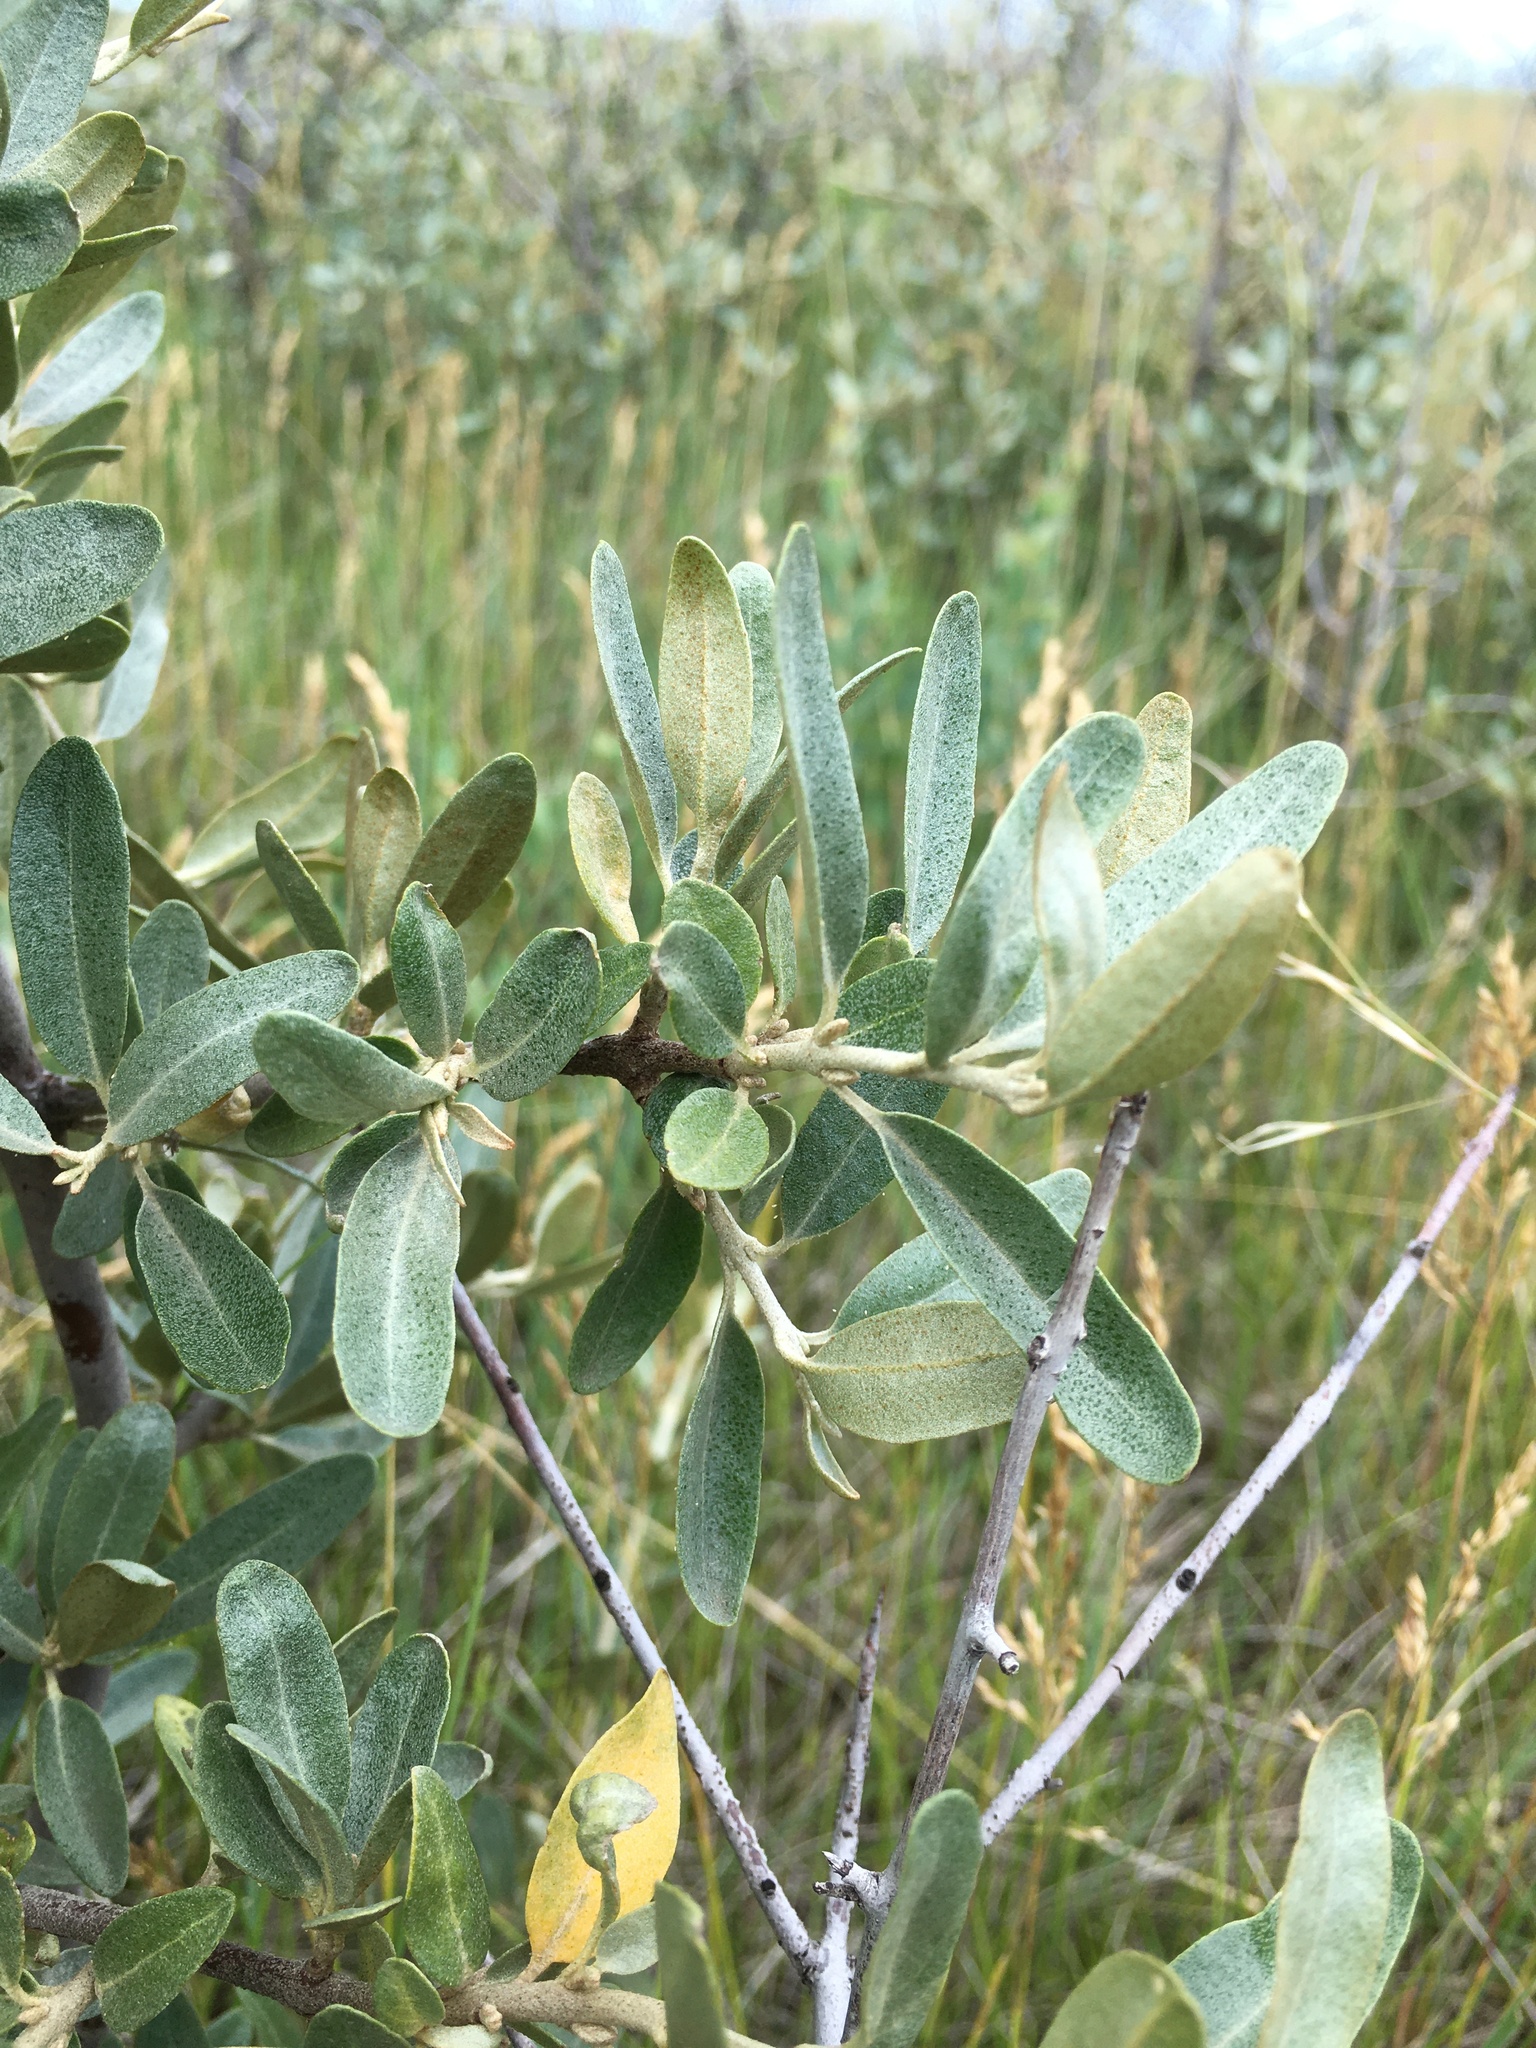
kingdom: Plantae
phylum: Tracheophyta
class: Magnoliopsida
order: Rosales
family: Elaeagnaceae
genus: Shepherdia
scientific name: Shepherdia argentea
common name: Silver buffaloberry
